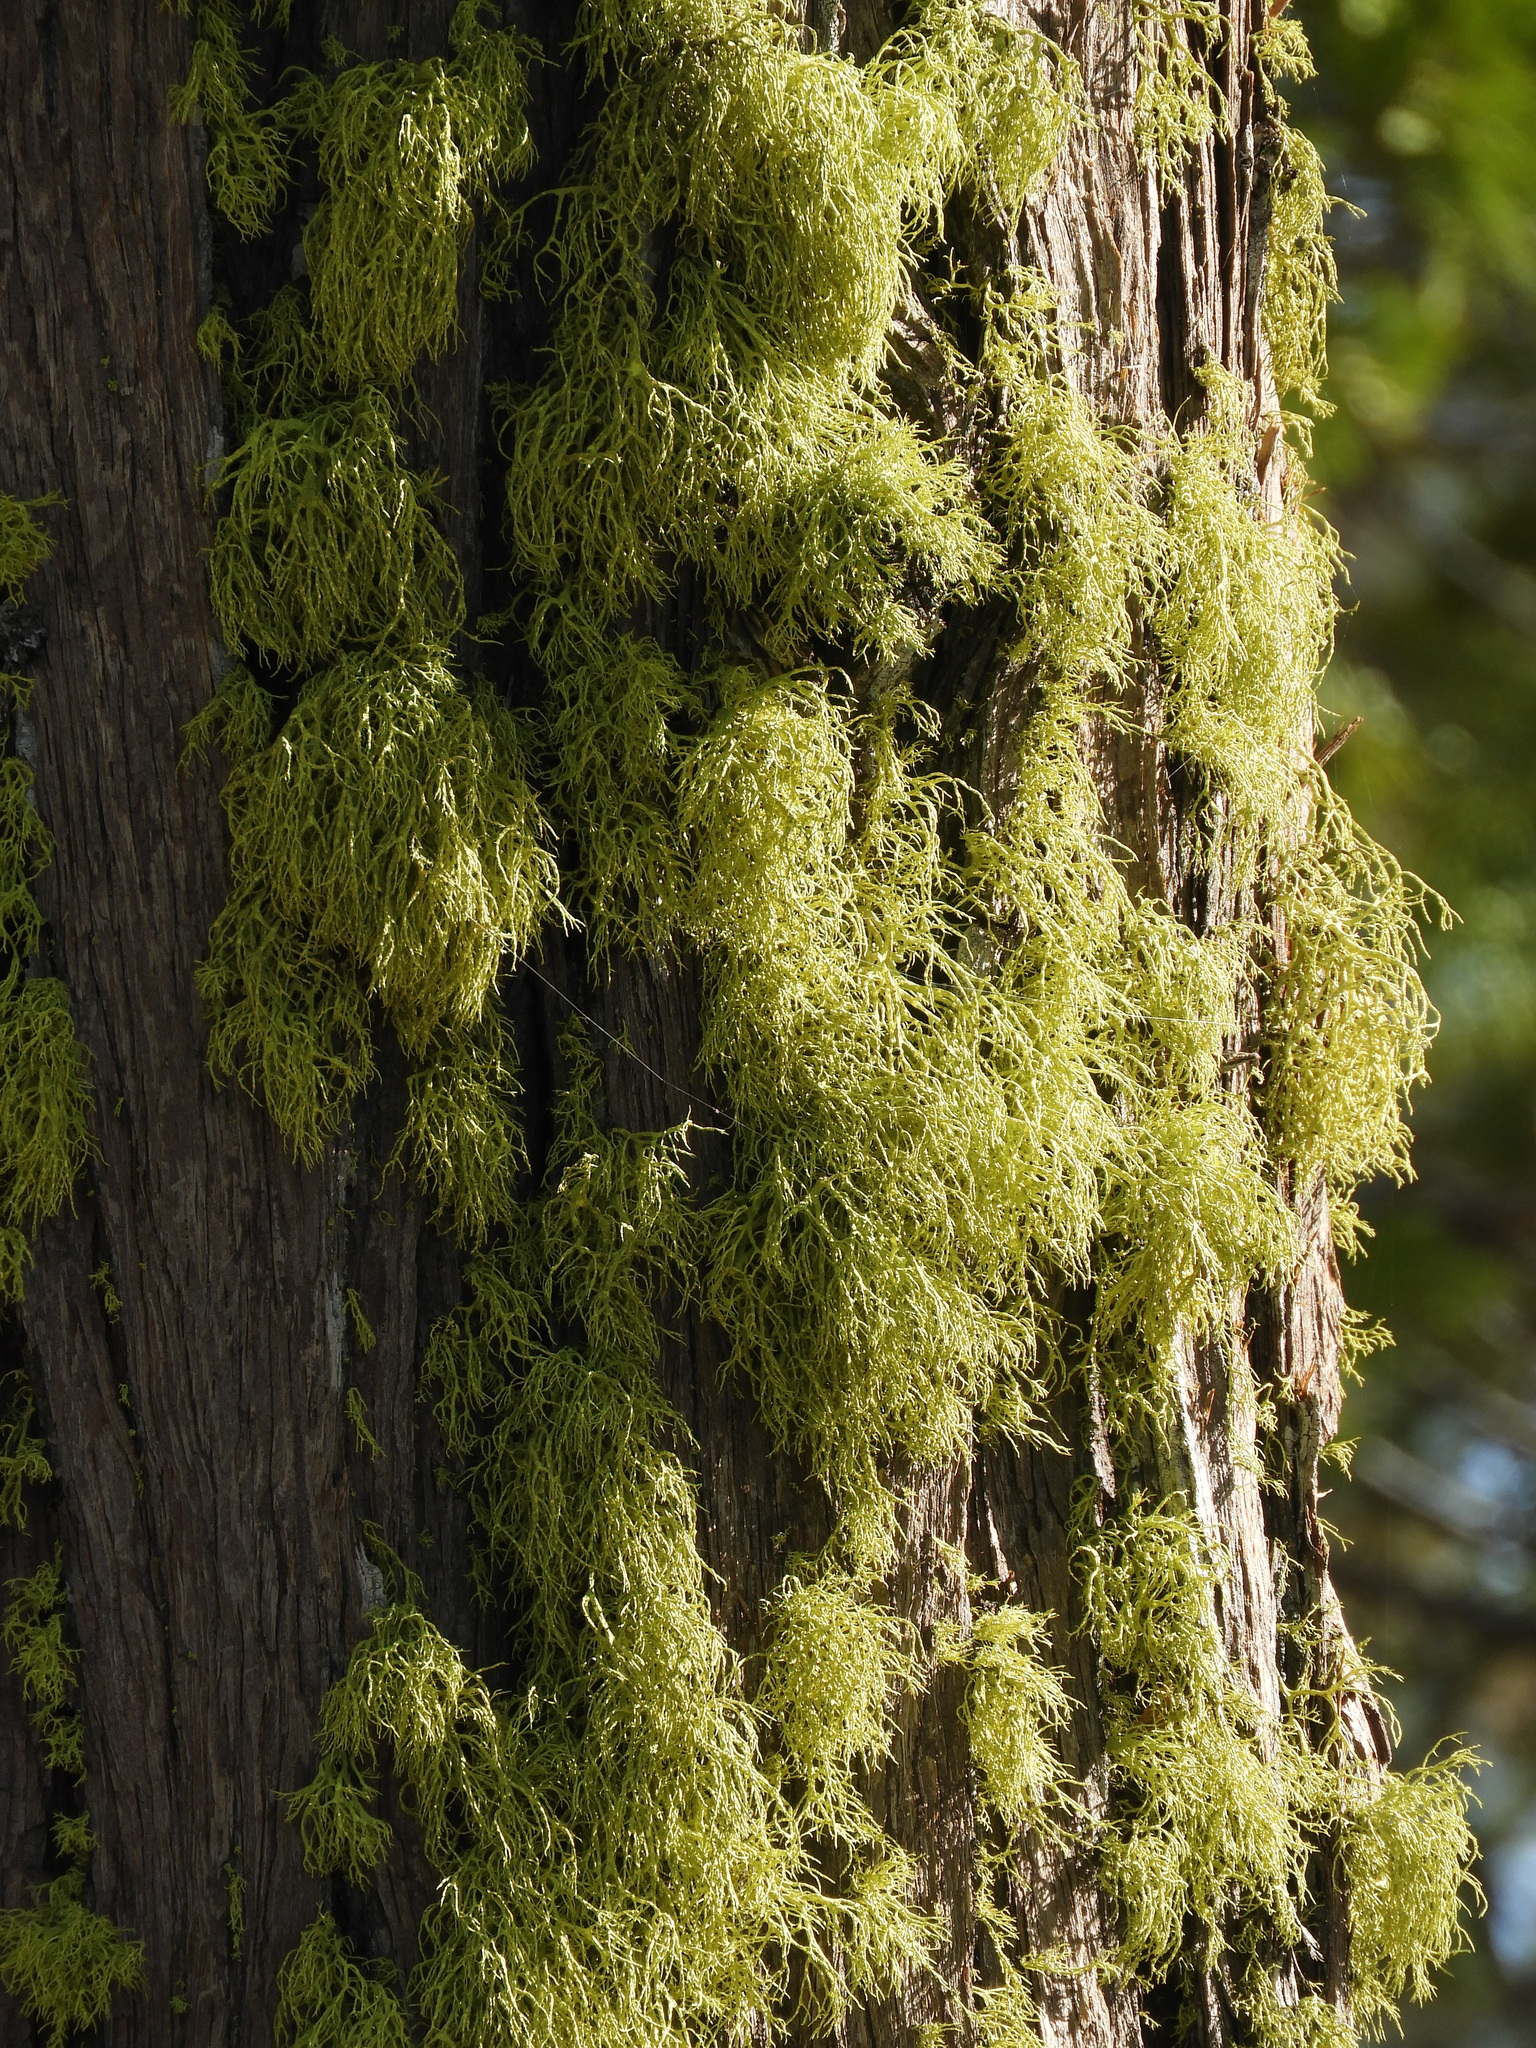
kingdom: Fungi
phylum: Ascomycota
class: Lecanoromycetes
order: Lecanorales
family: Parmeliaceae
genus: Letharia
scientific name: Letharia vulpina
